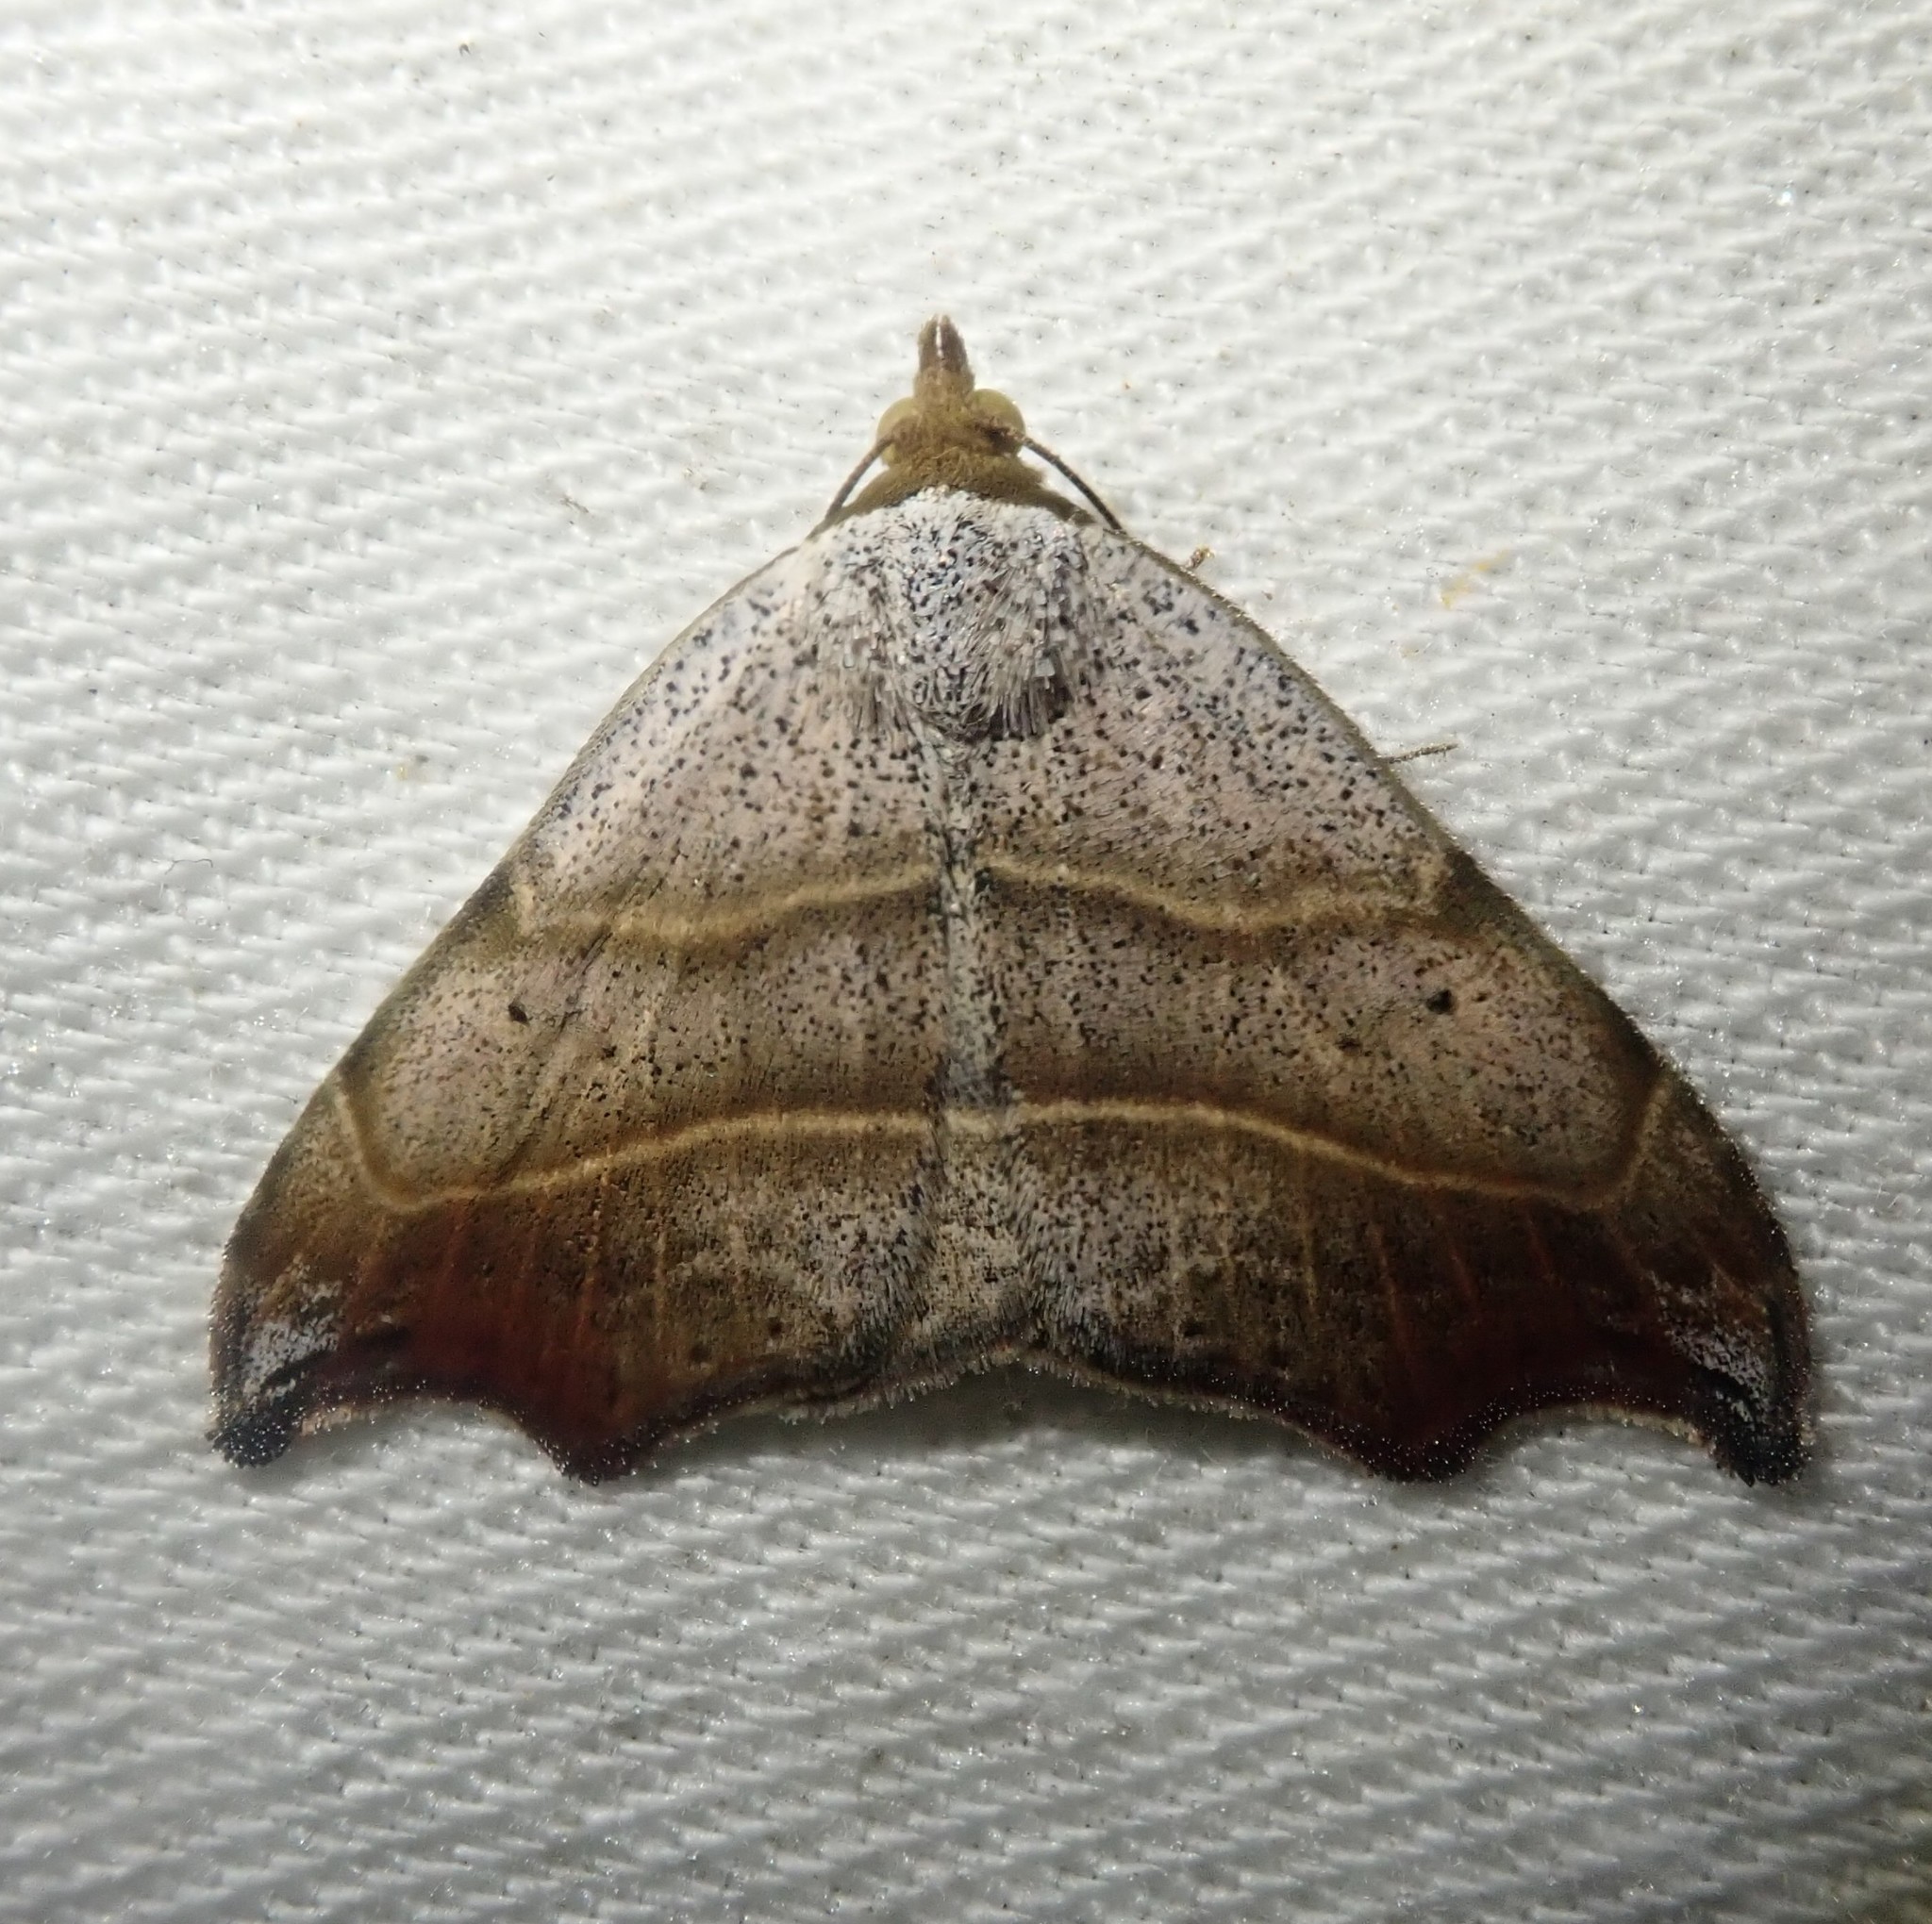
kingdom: Animalia
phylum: Arthropoda
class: Insecta
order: Lepidoptera
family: Erebidae
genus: Laspeyria
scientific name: Laspeyria flexula
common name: Beautiful hook-tip
